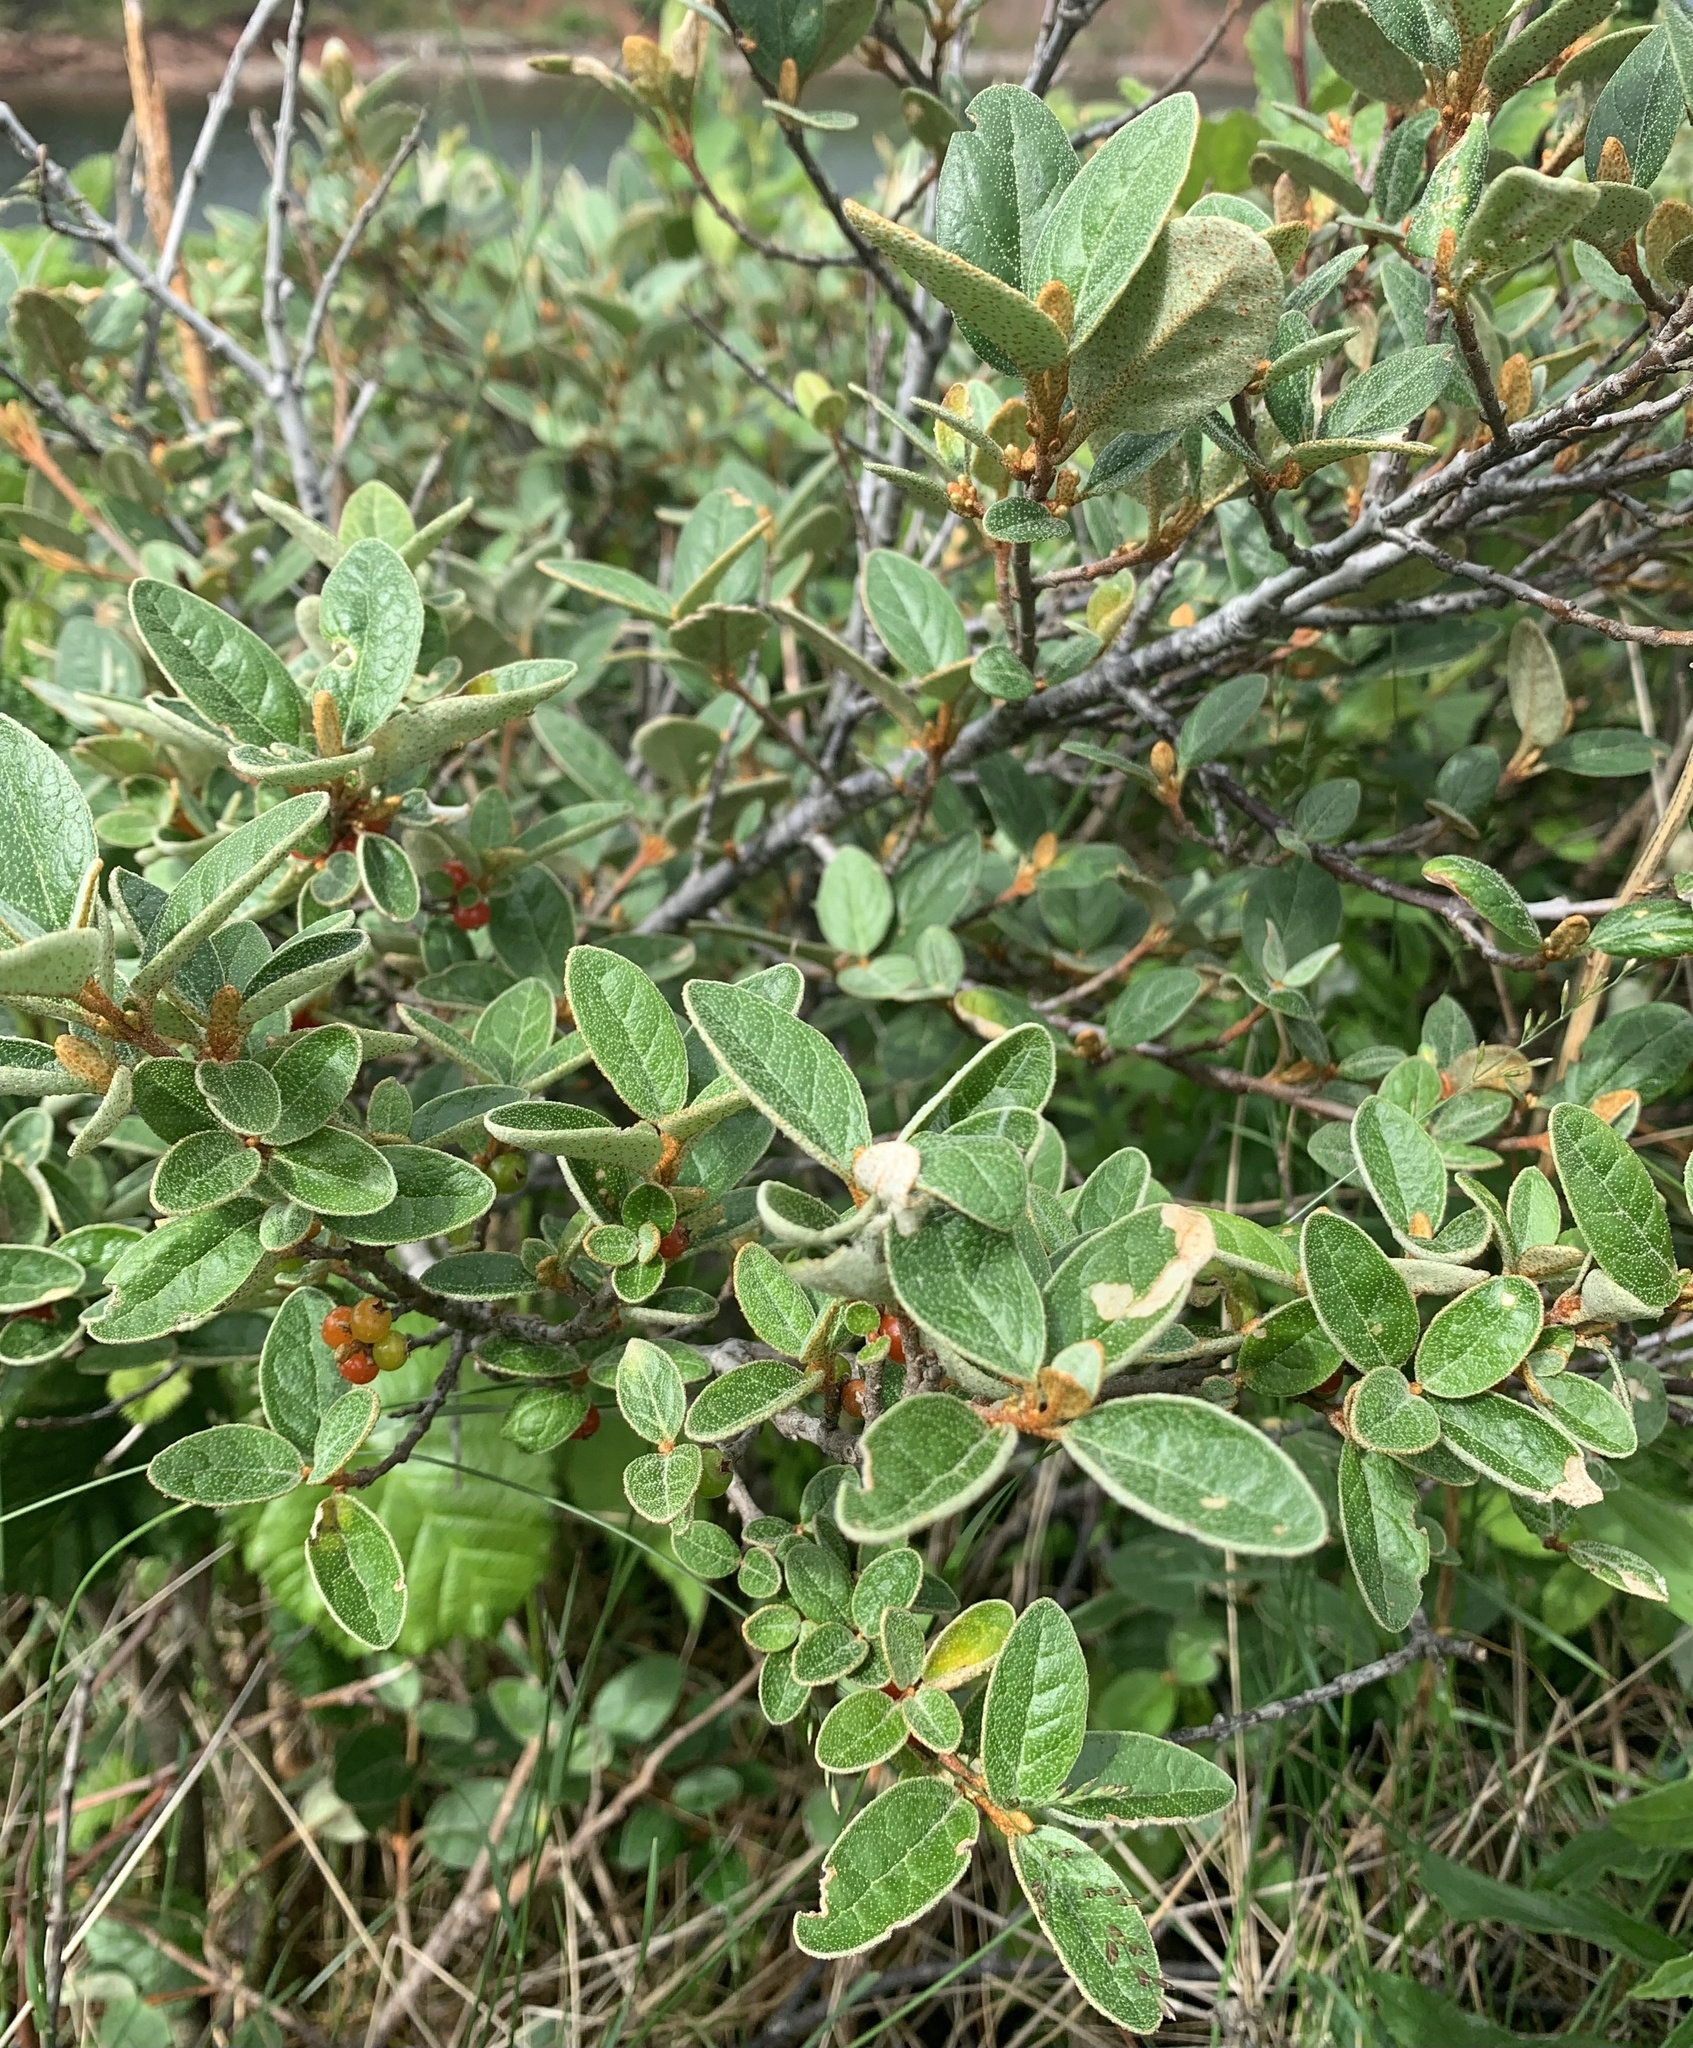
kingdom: Plantae
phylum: Tracheophyta
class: Magnoliopsida
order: Rosales
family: Elaeagnaceae
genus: Shepherdia
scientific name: Shepherdia canadensis
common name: Soapberry
